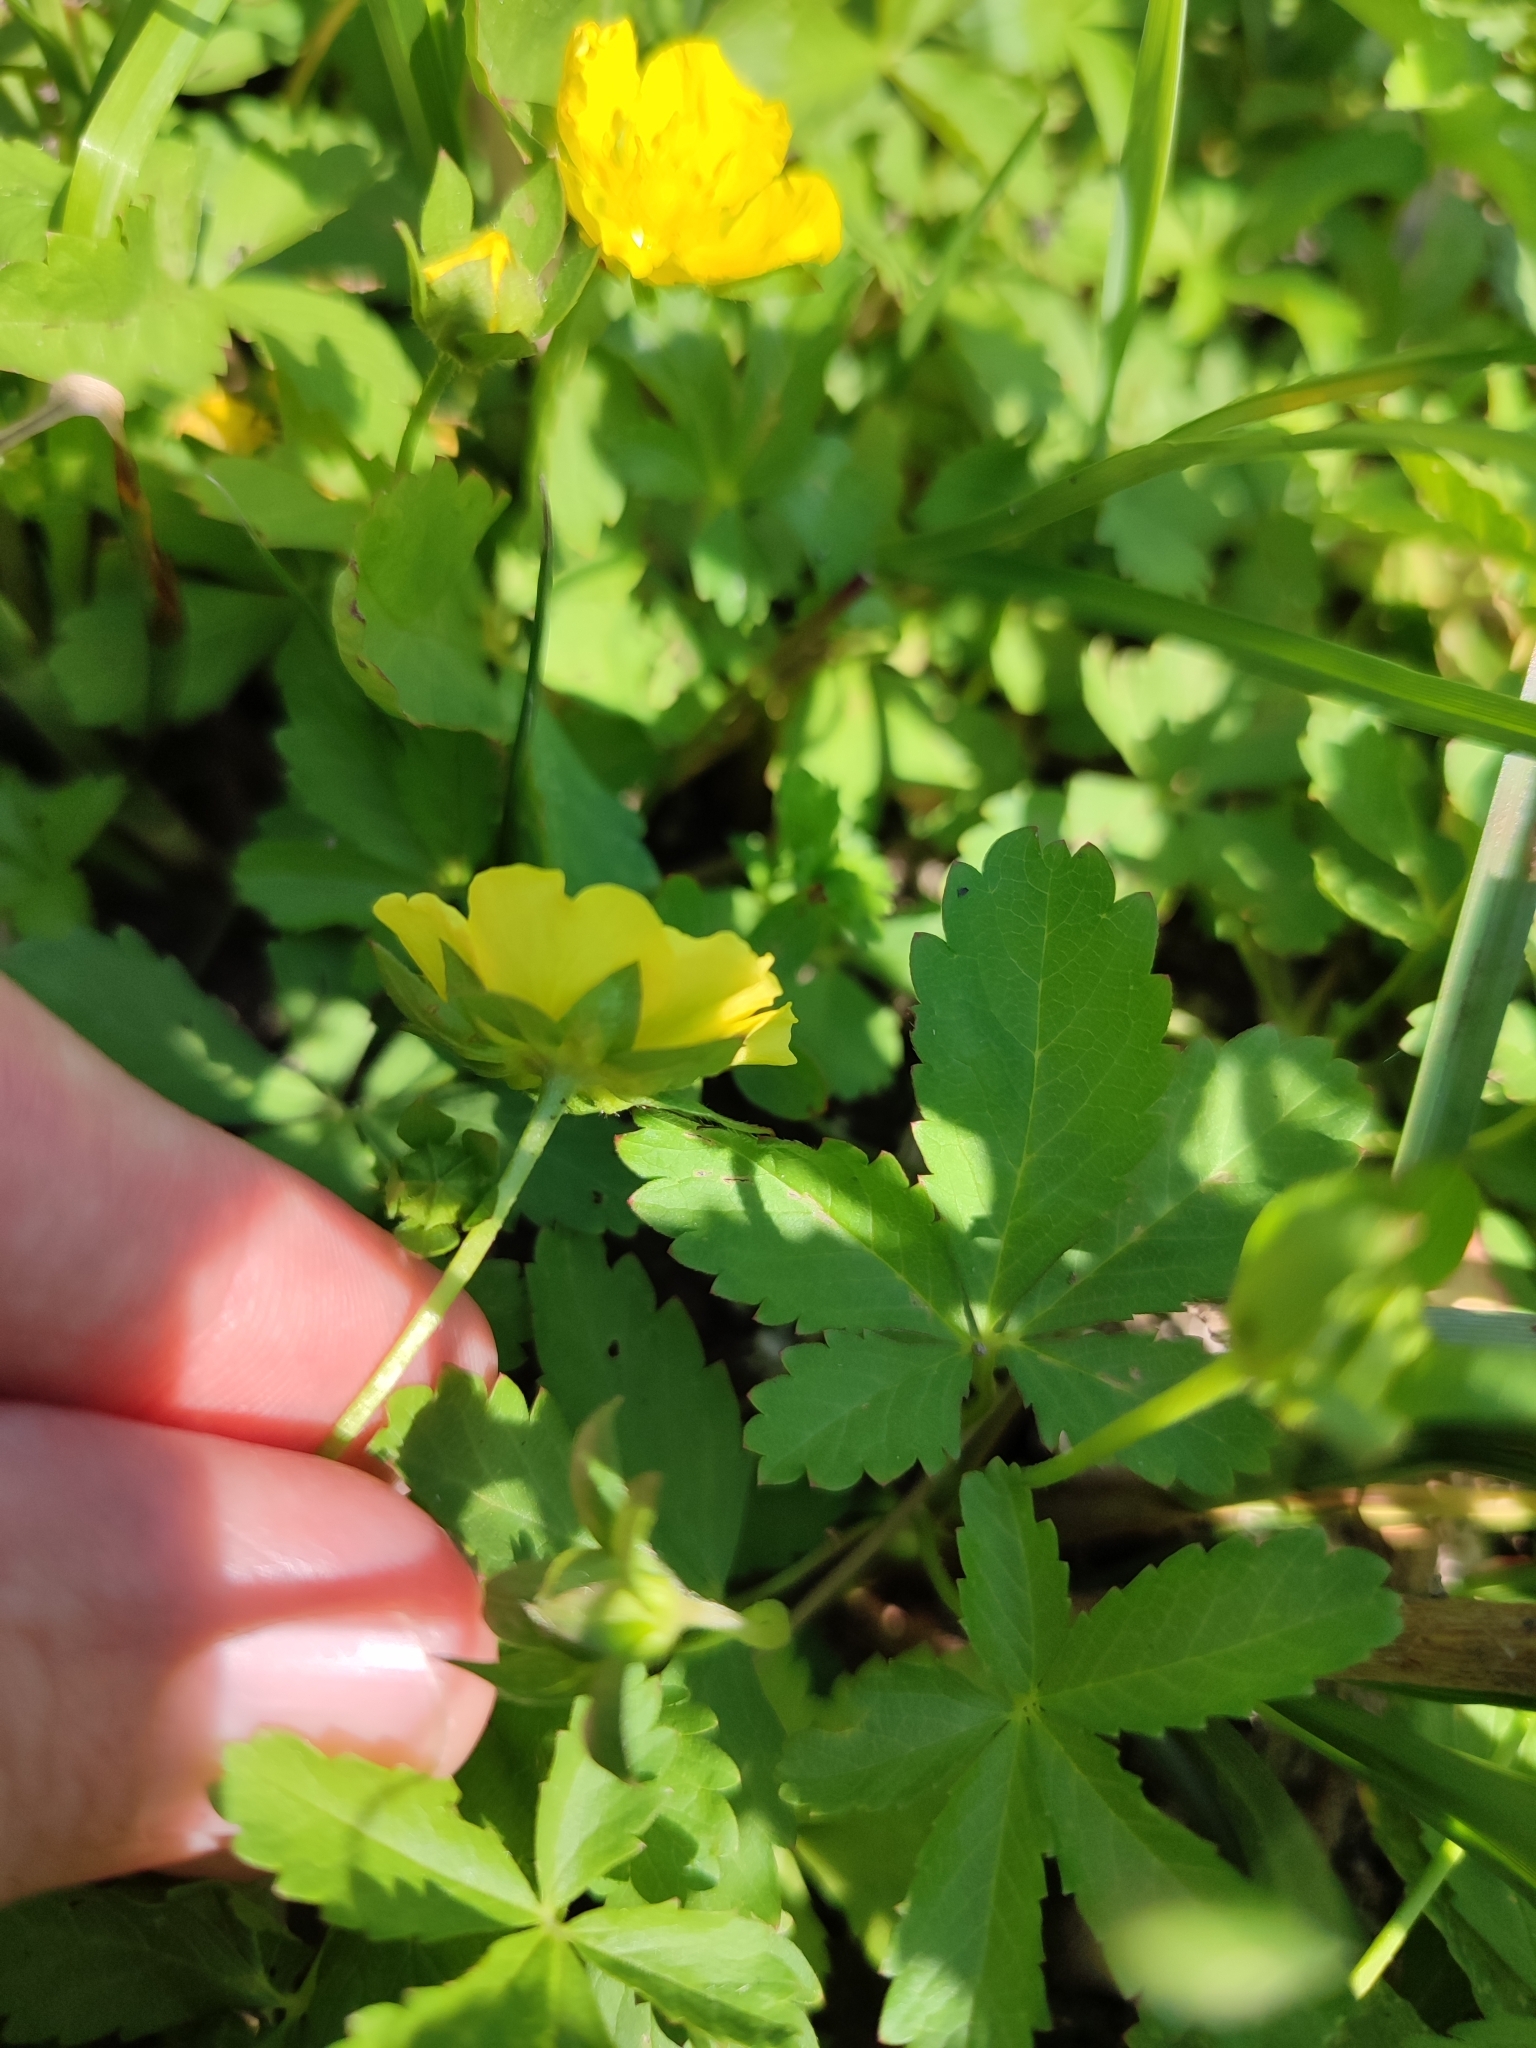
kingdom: Plantae
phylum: Tracheophyta
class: Magnoliopsida
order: Rosales
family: Rosaceae
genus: Potentilla
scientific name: Potentilla reptans
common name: Creeping cinquefoil
